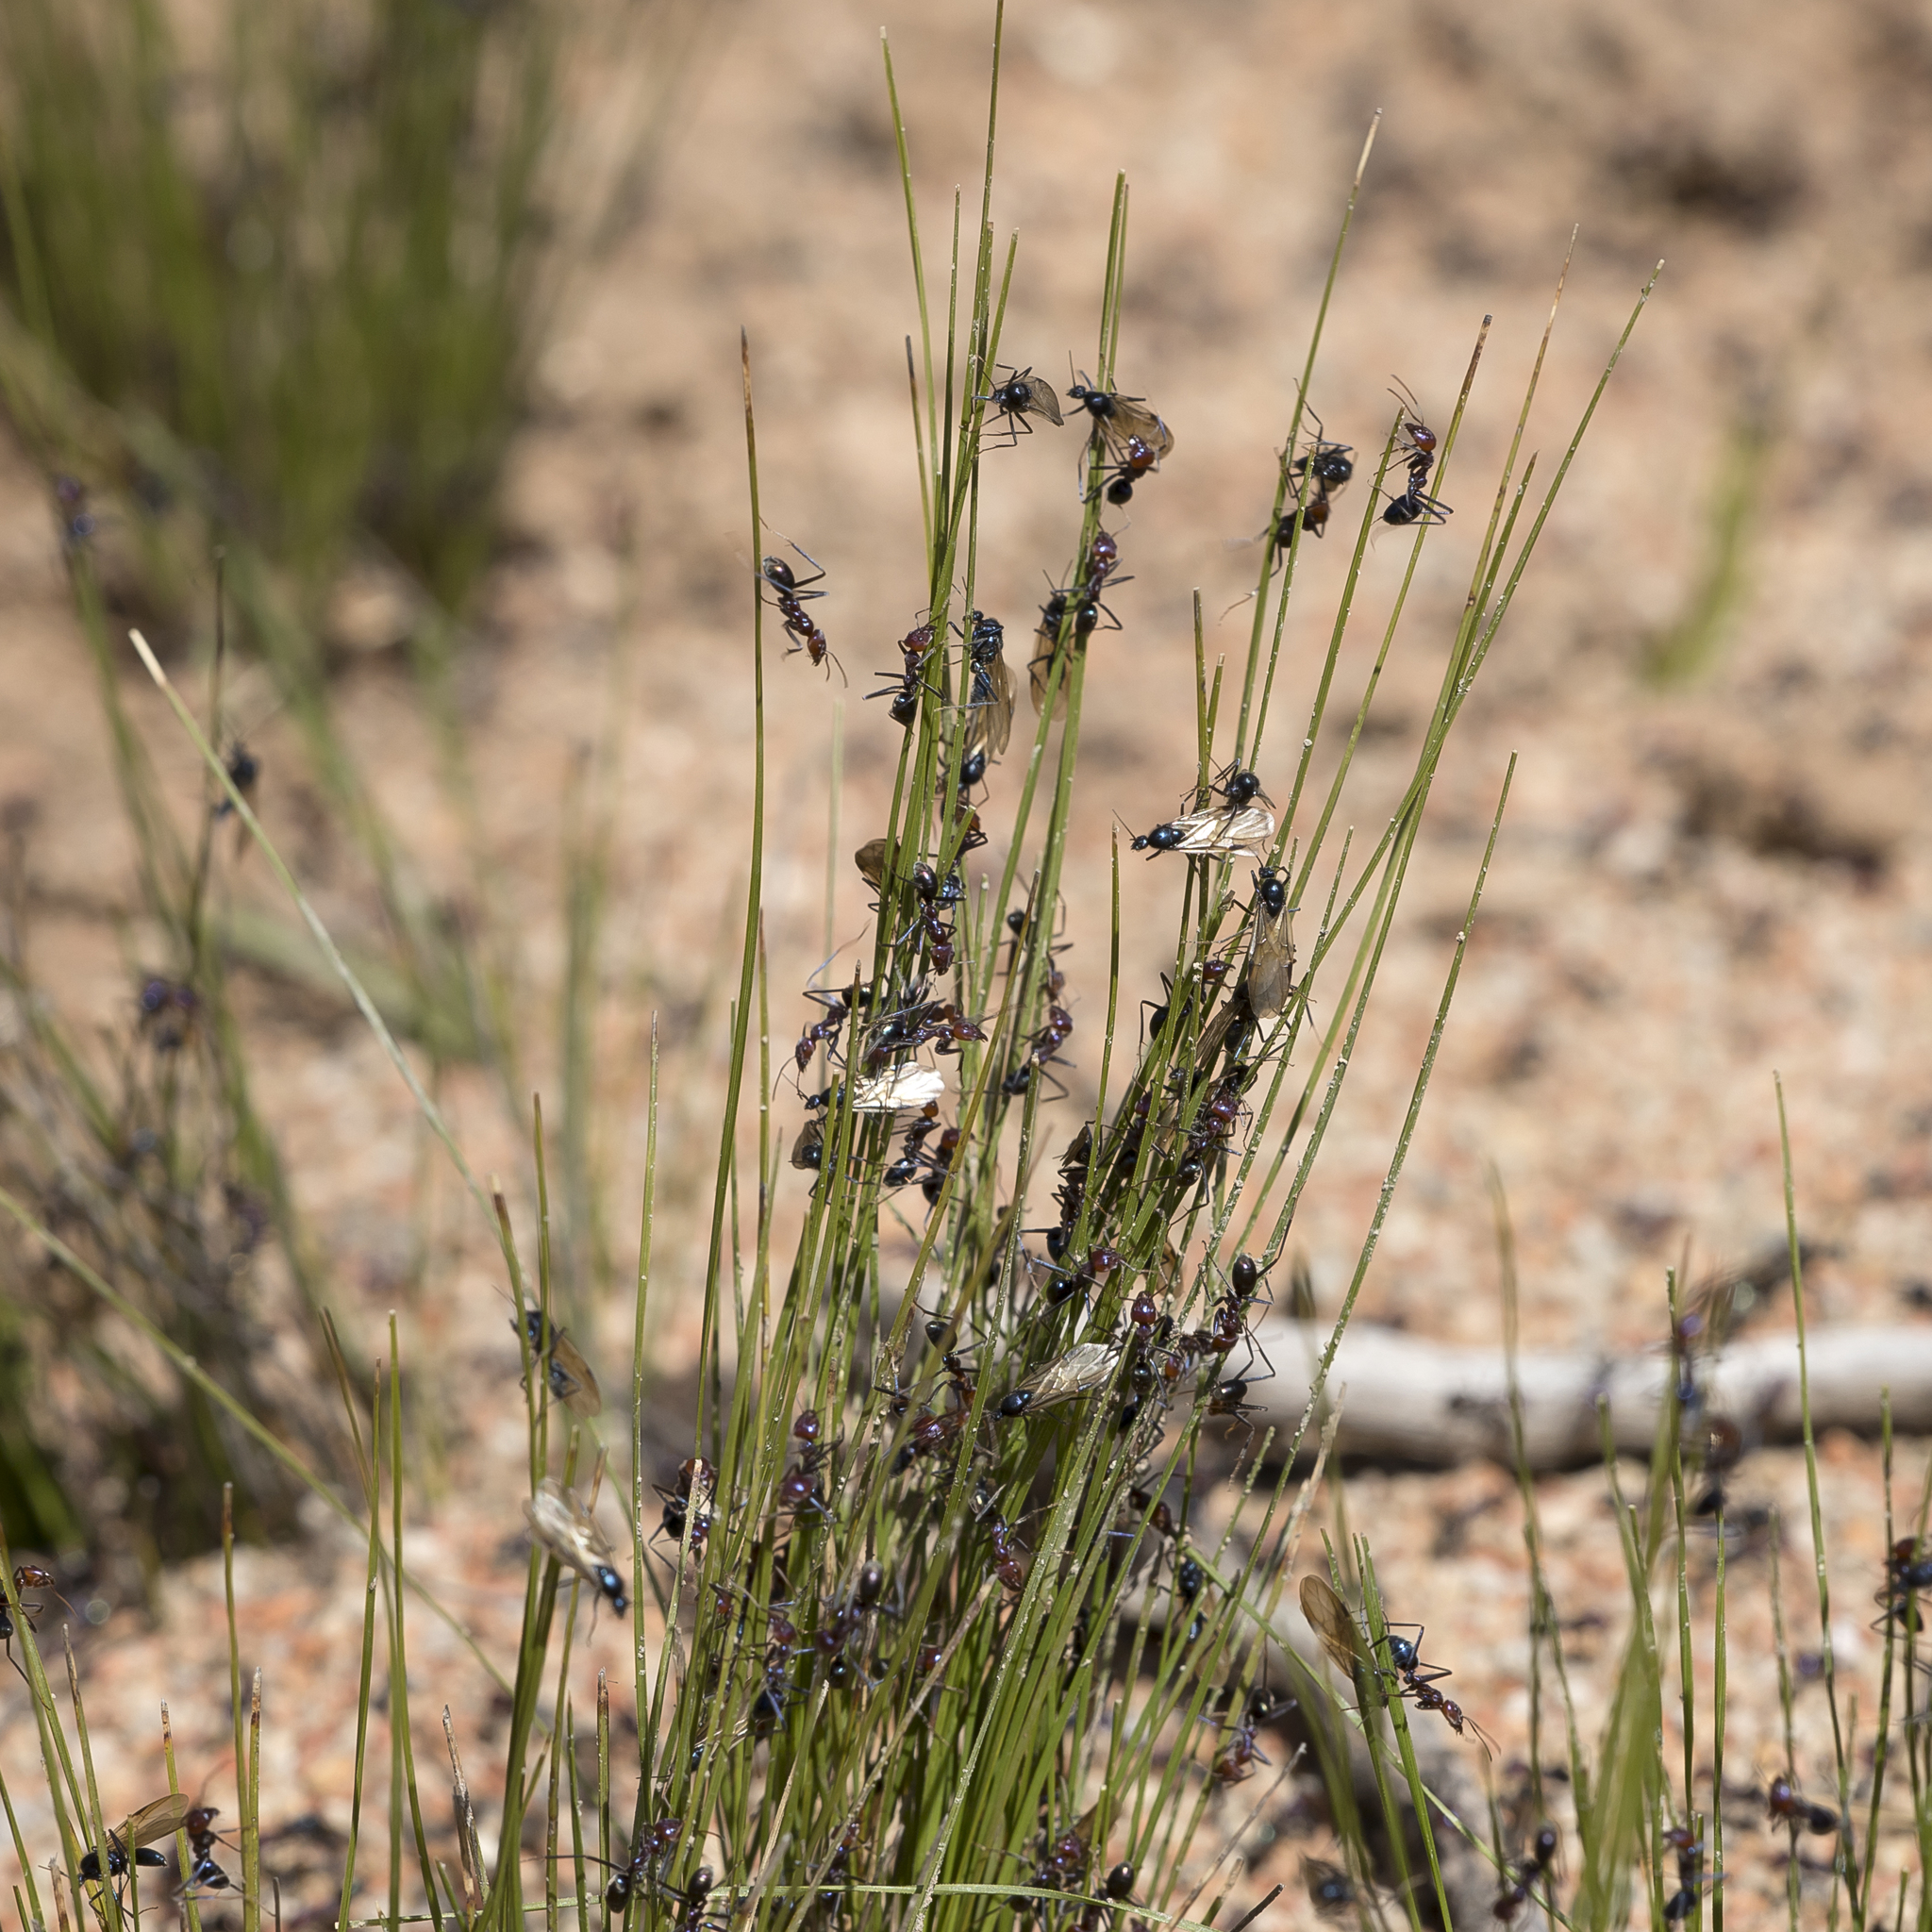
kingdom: Animalia
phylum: Arthropoda
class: Insecta
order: Hymenoptera
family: Formicidae
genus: Iridomyrmex
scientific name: Iridomyrmex purpureus
